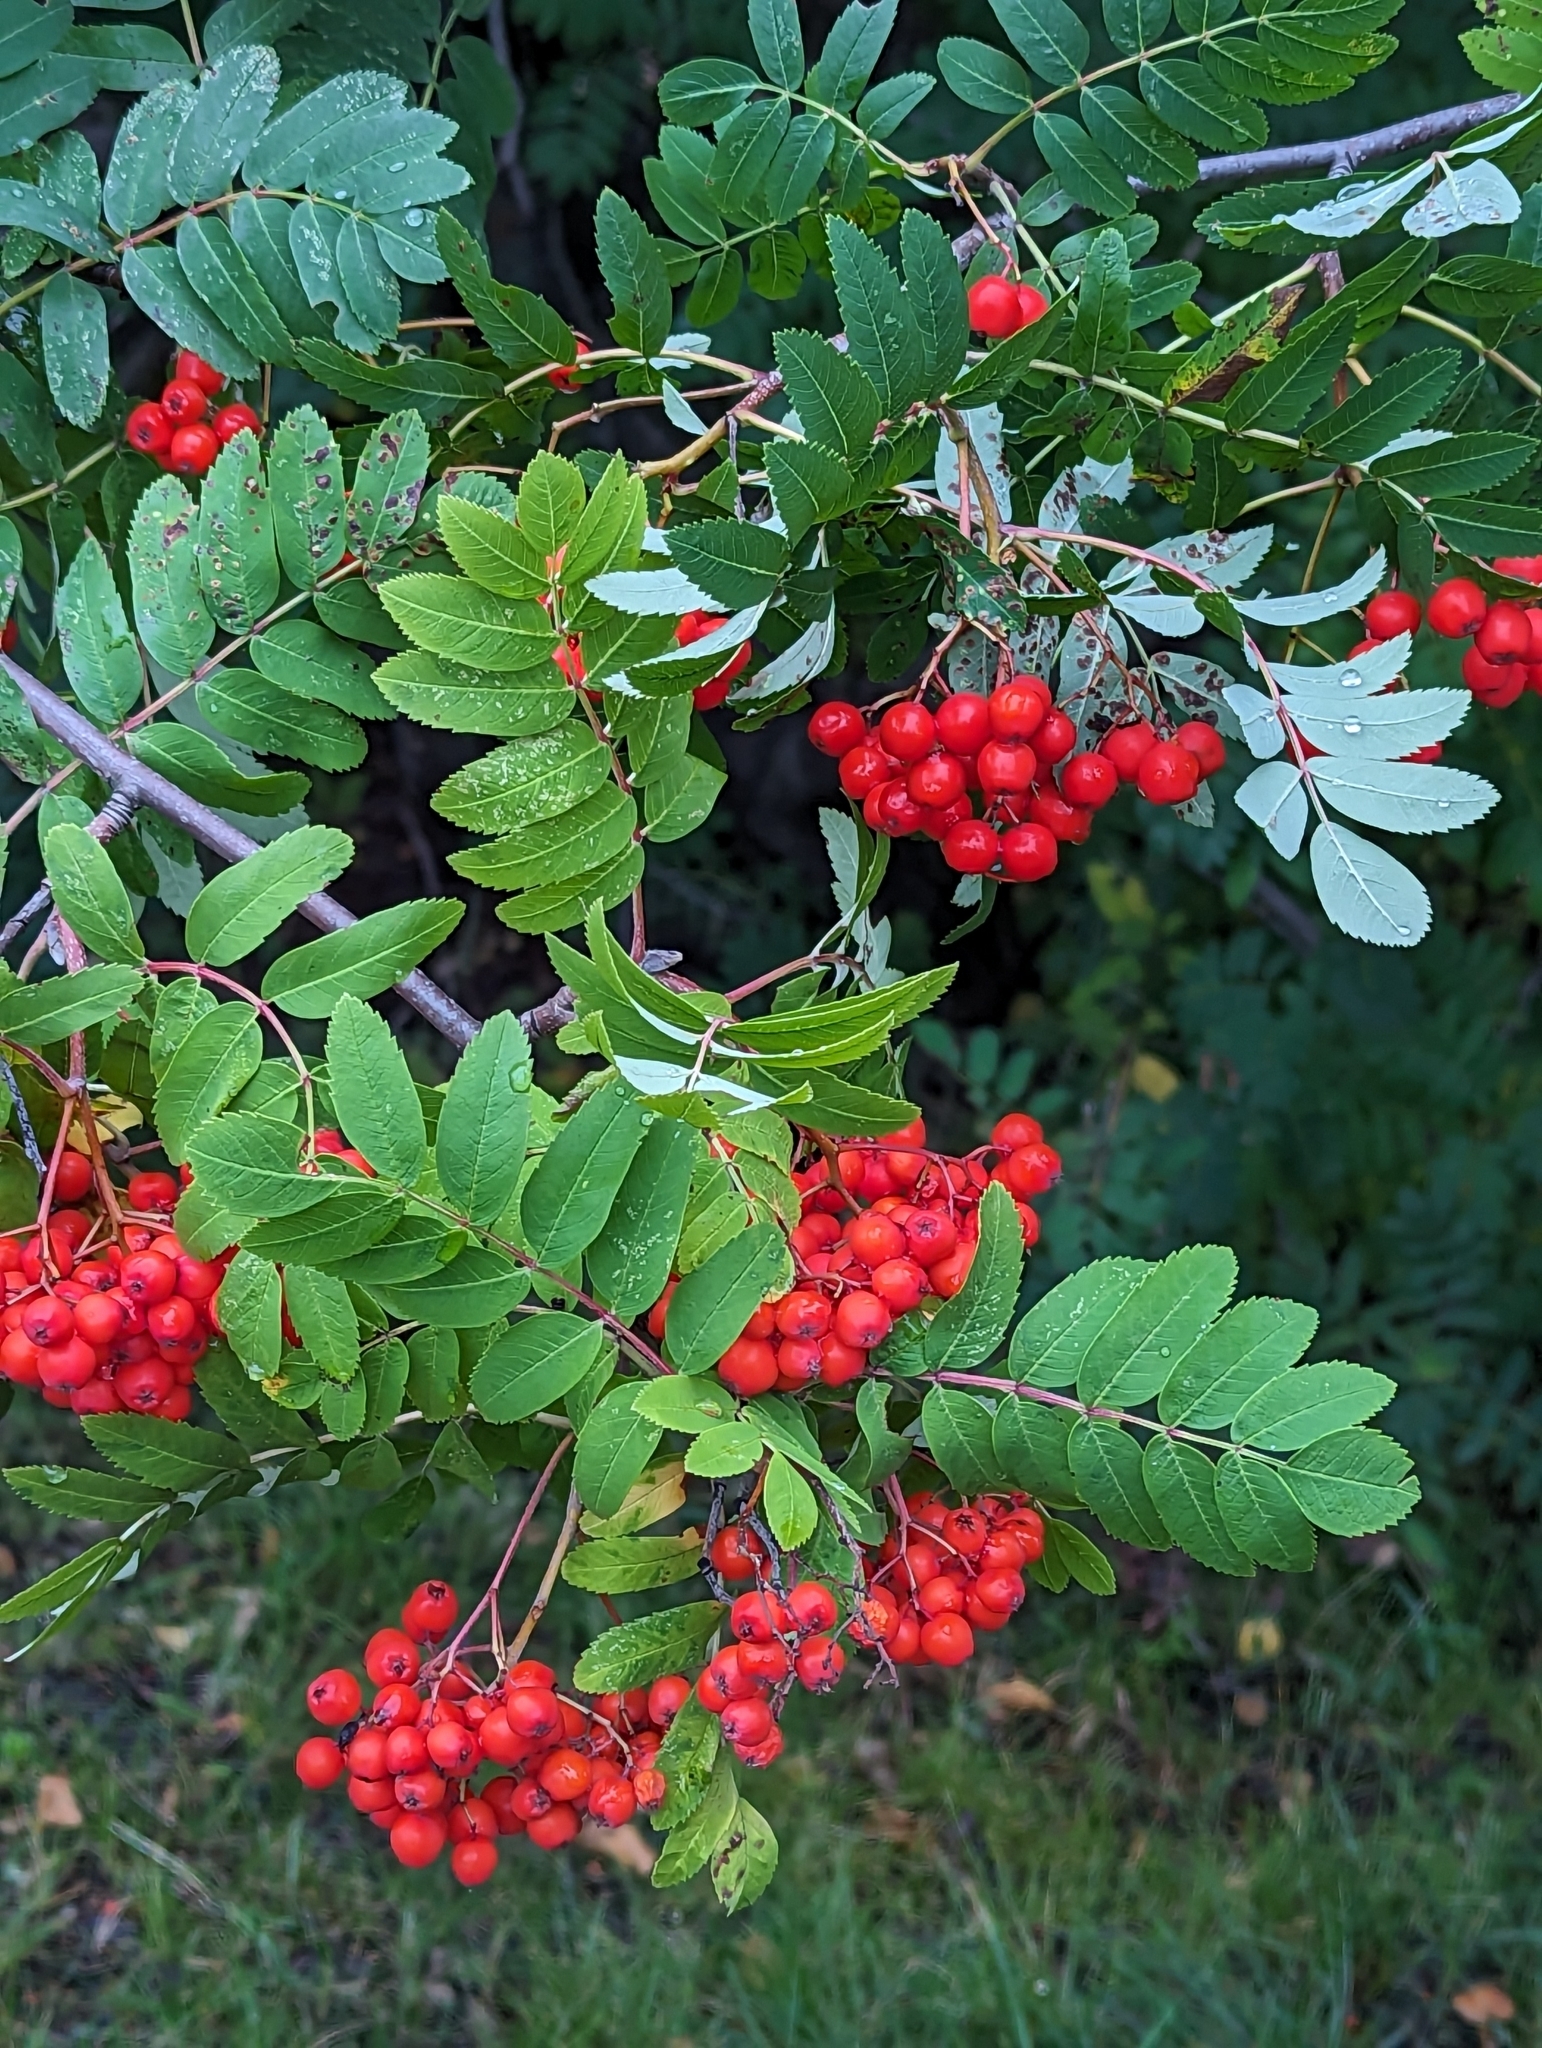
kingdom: Plantae
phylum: Tracheophyta
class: Magnoliopsida
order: Rosales
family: Rosaceae
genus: Sorbus
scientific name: Sorbus aucuparia
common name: Rowan
